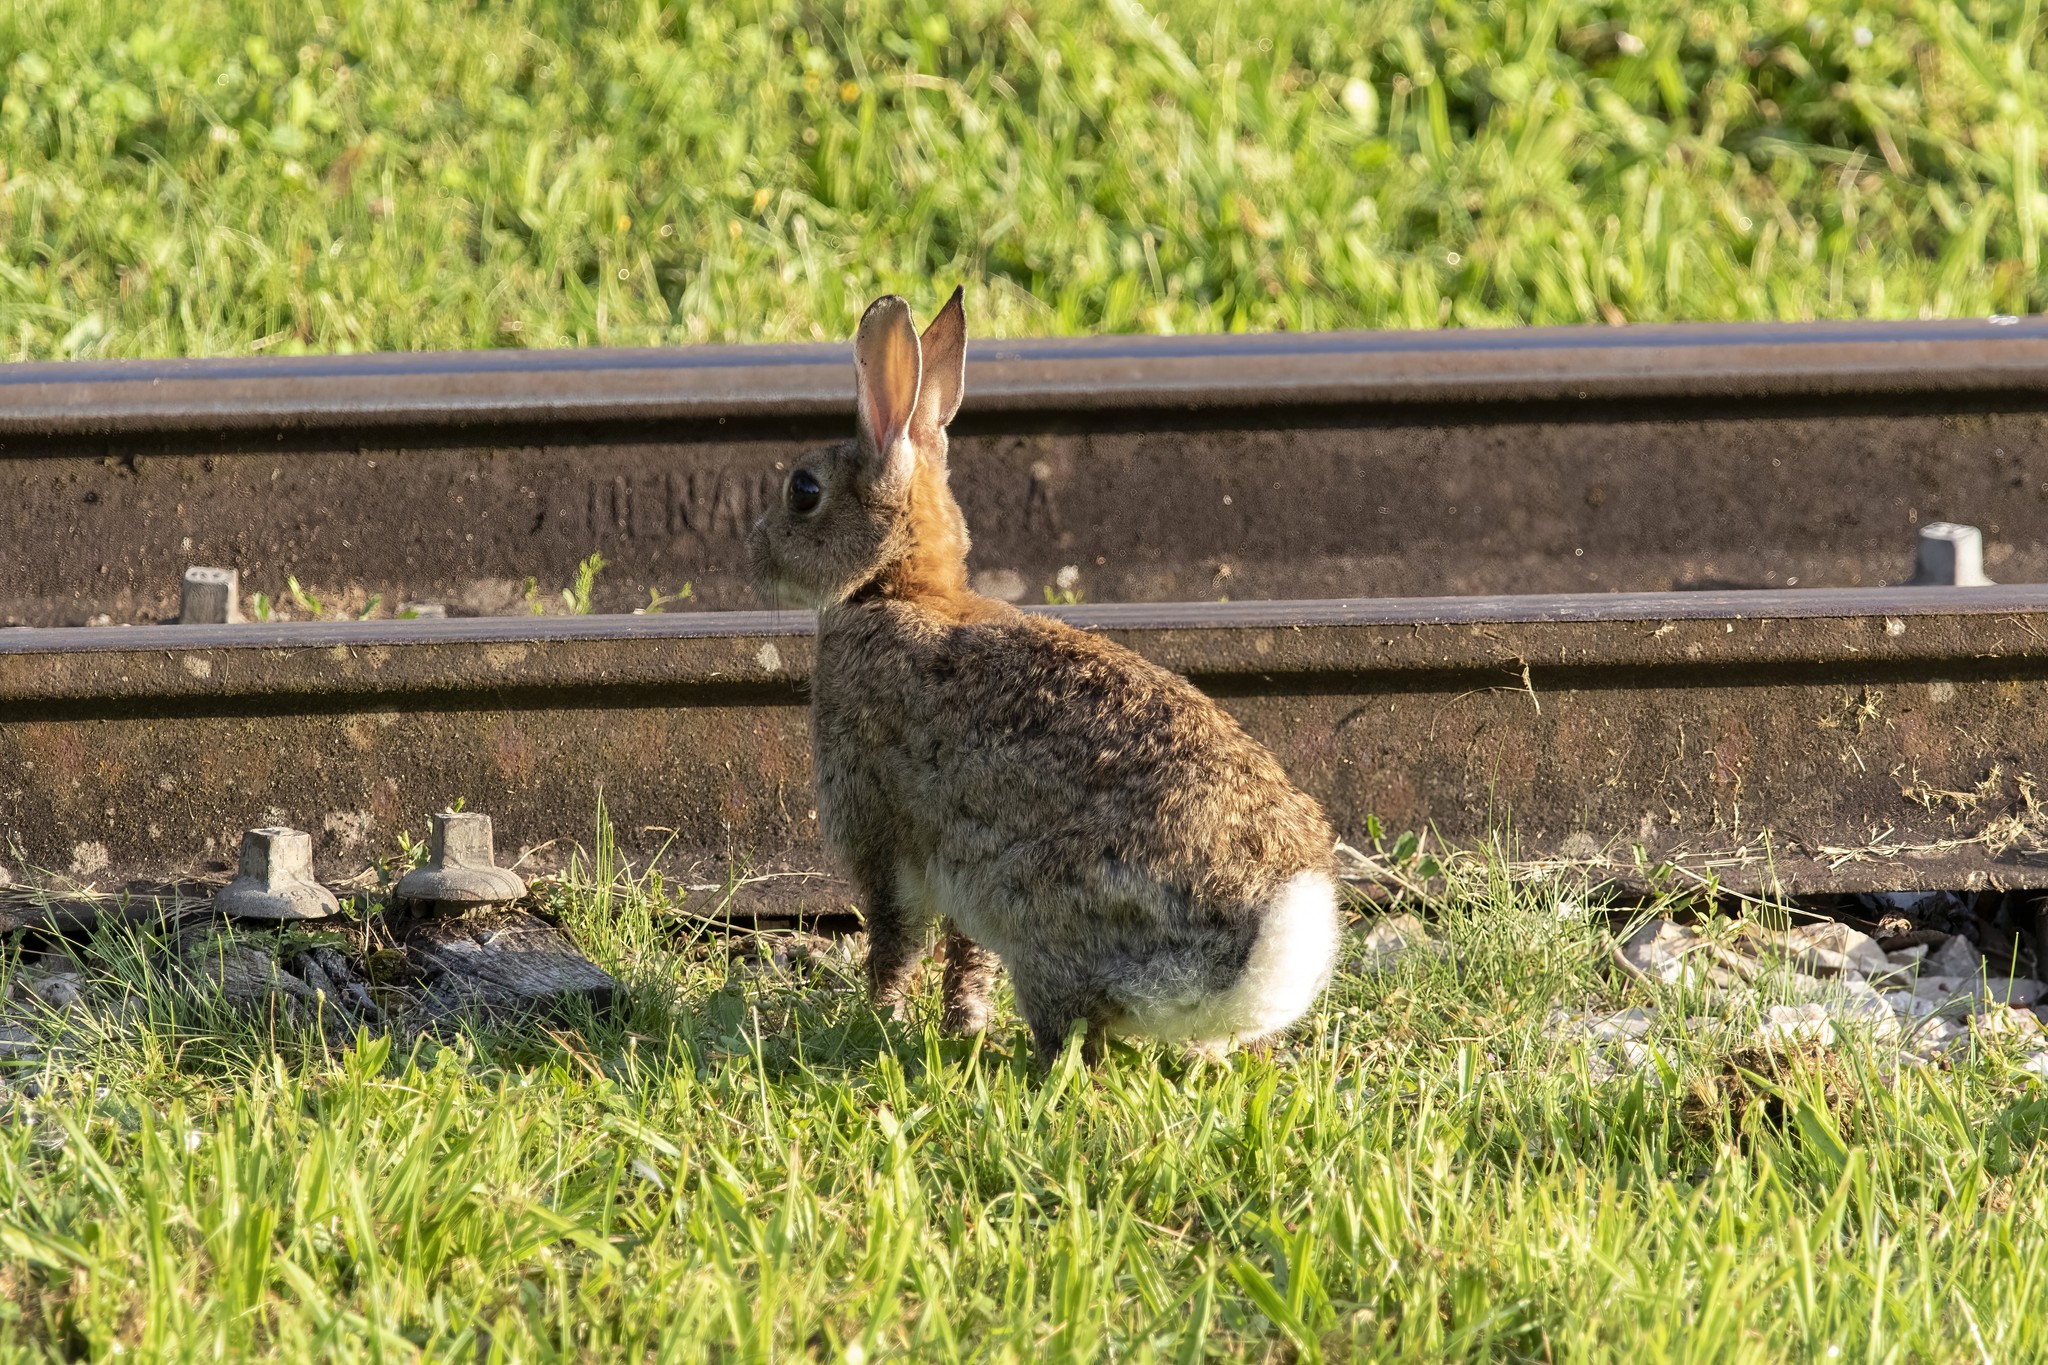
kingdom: Animalia
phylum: Chordata
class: Mammalia
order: Lagomorpha
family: Leporidae
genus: Oryctolagus
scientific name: Oryctolagus cuniculus
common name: European rabbit
